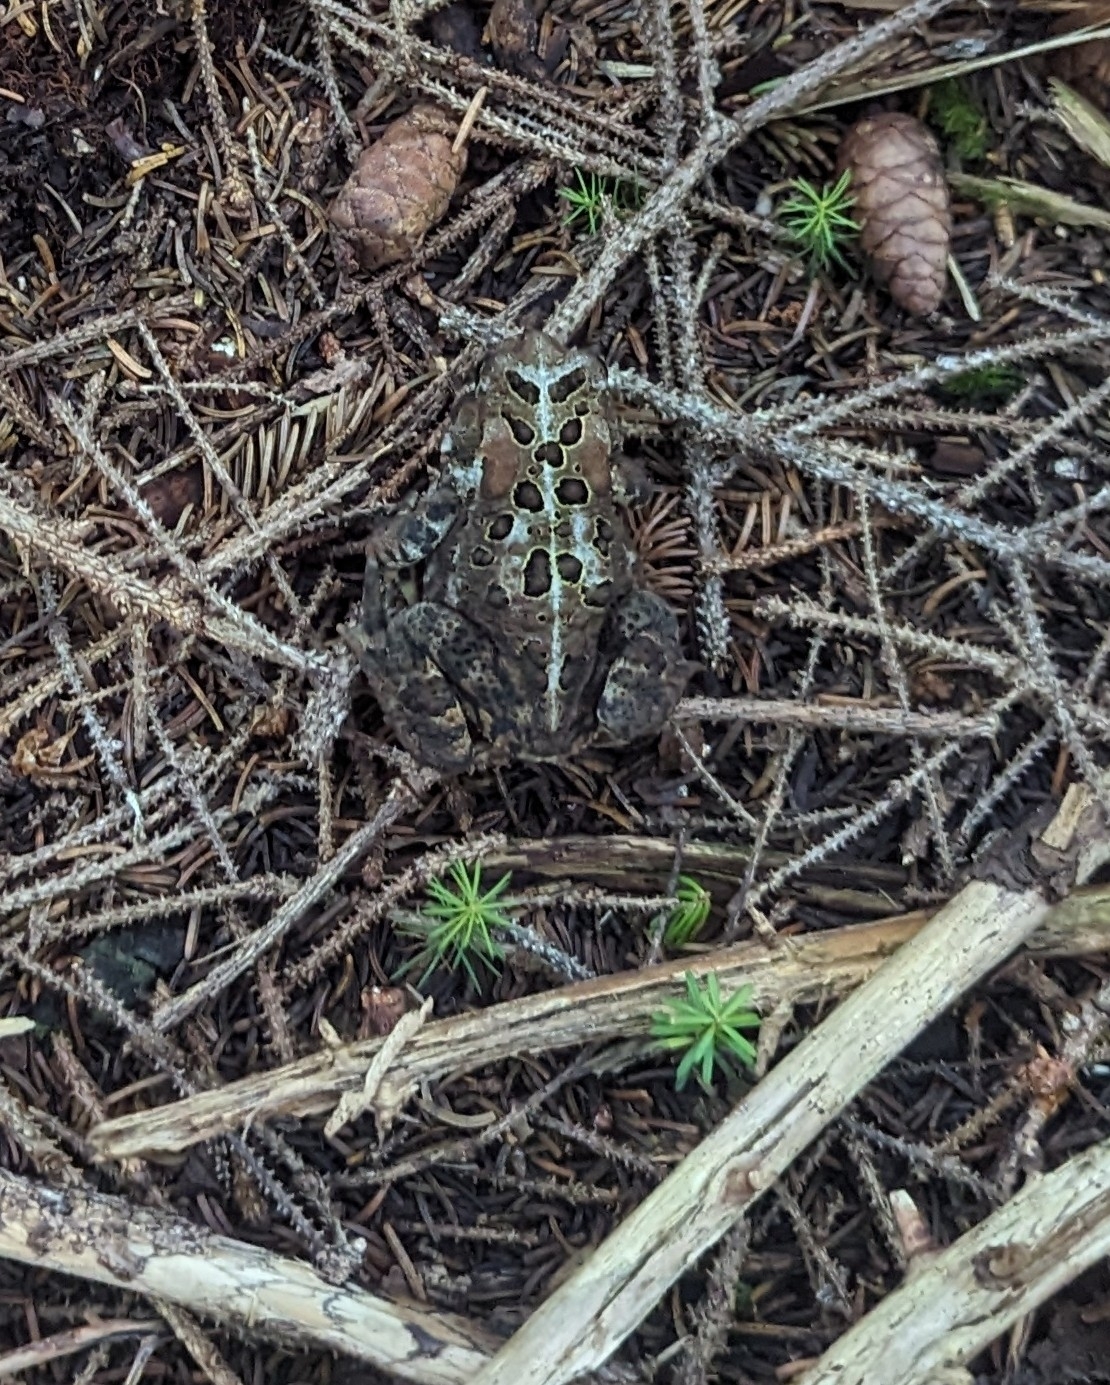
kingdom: Animalia
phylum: Chordata
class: Amphibia
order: Anura
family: Bufonidae
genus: Anaxyrus
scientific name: Anaxyrus americanus
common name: American toad
